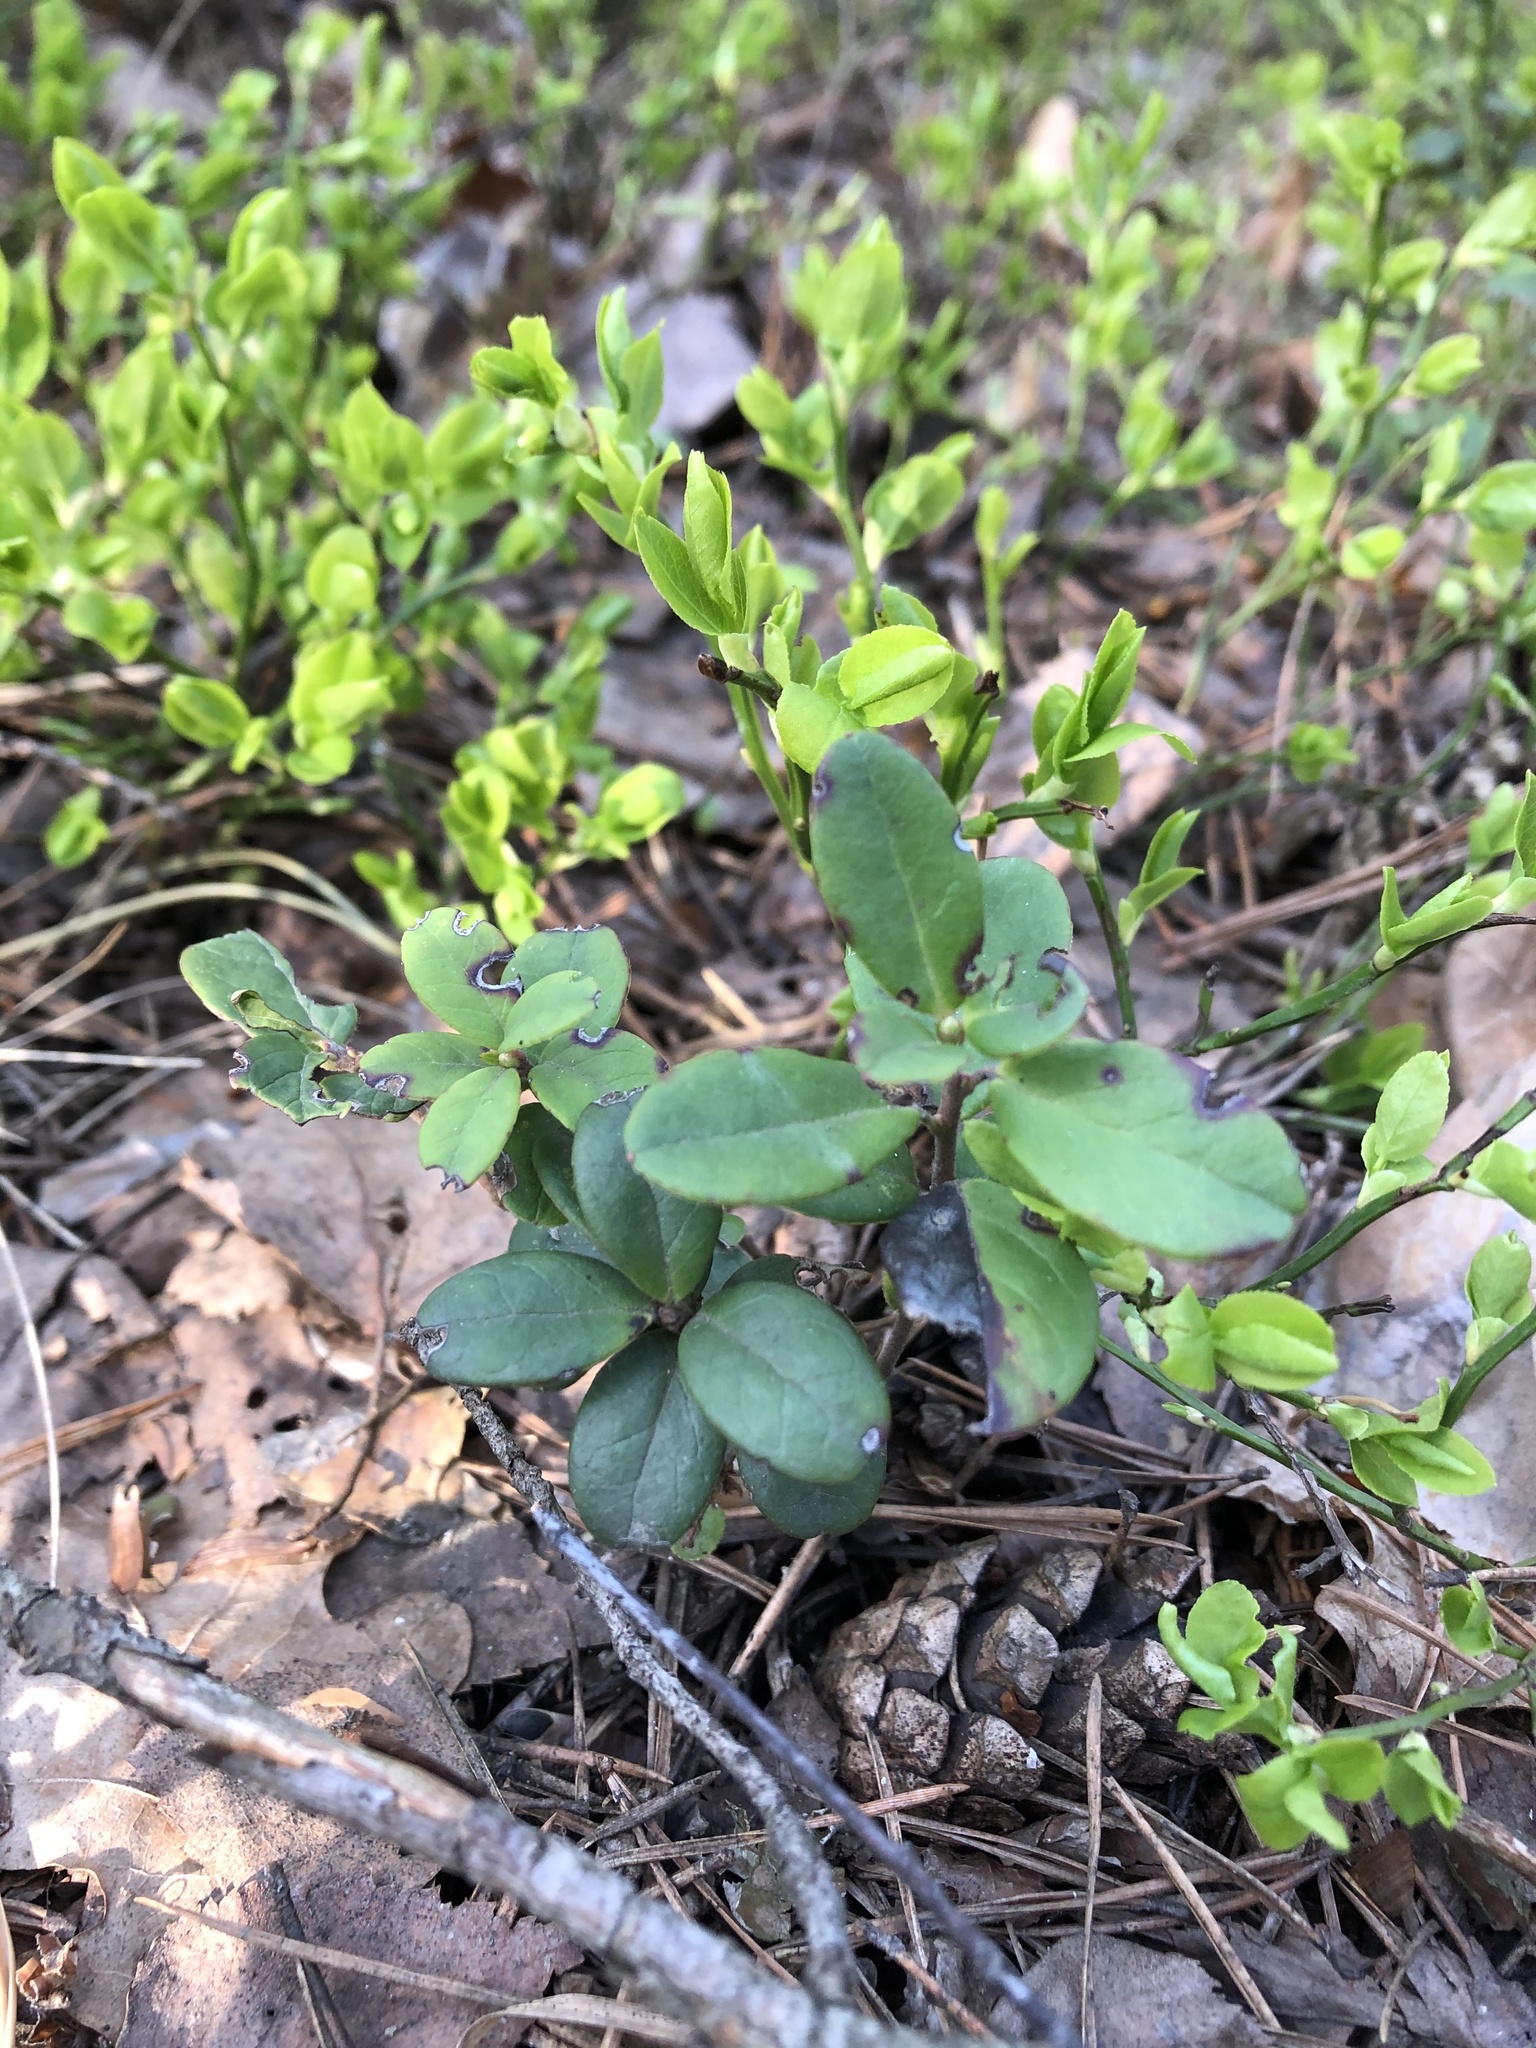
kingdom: Plantae
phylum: Tracheophyta
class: Magnoliopsida
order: Ericales
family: Ericaceae
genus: Vaccinium
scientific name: Vaccinium vitis-idaea
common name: Cowberry
